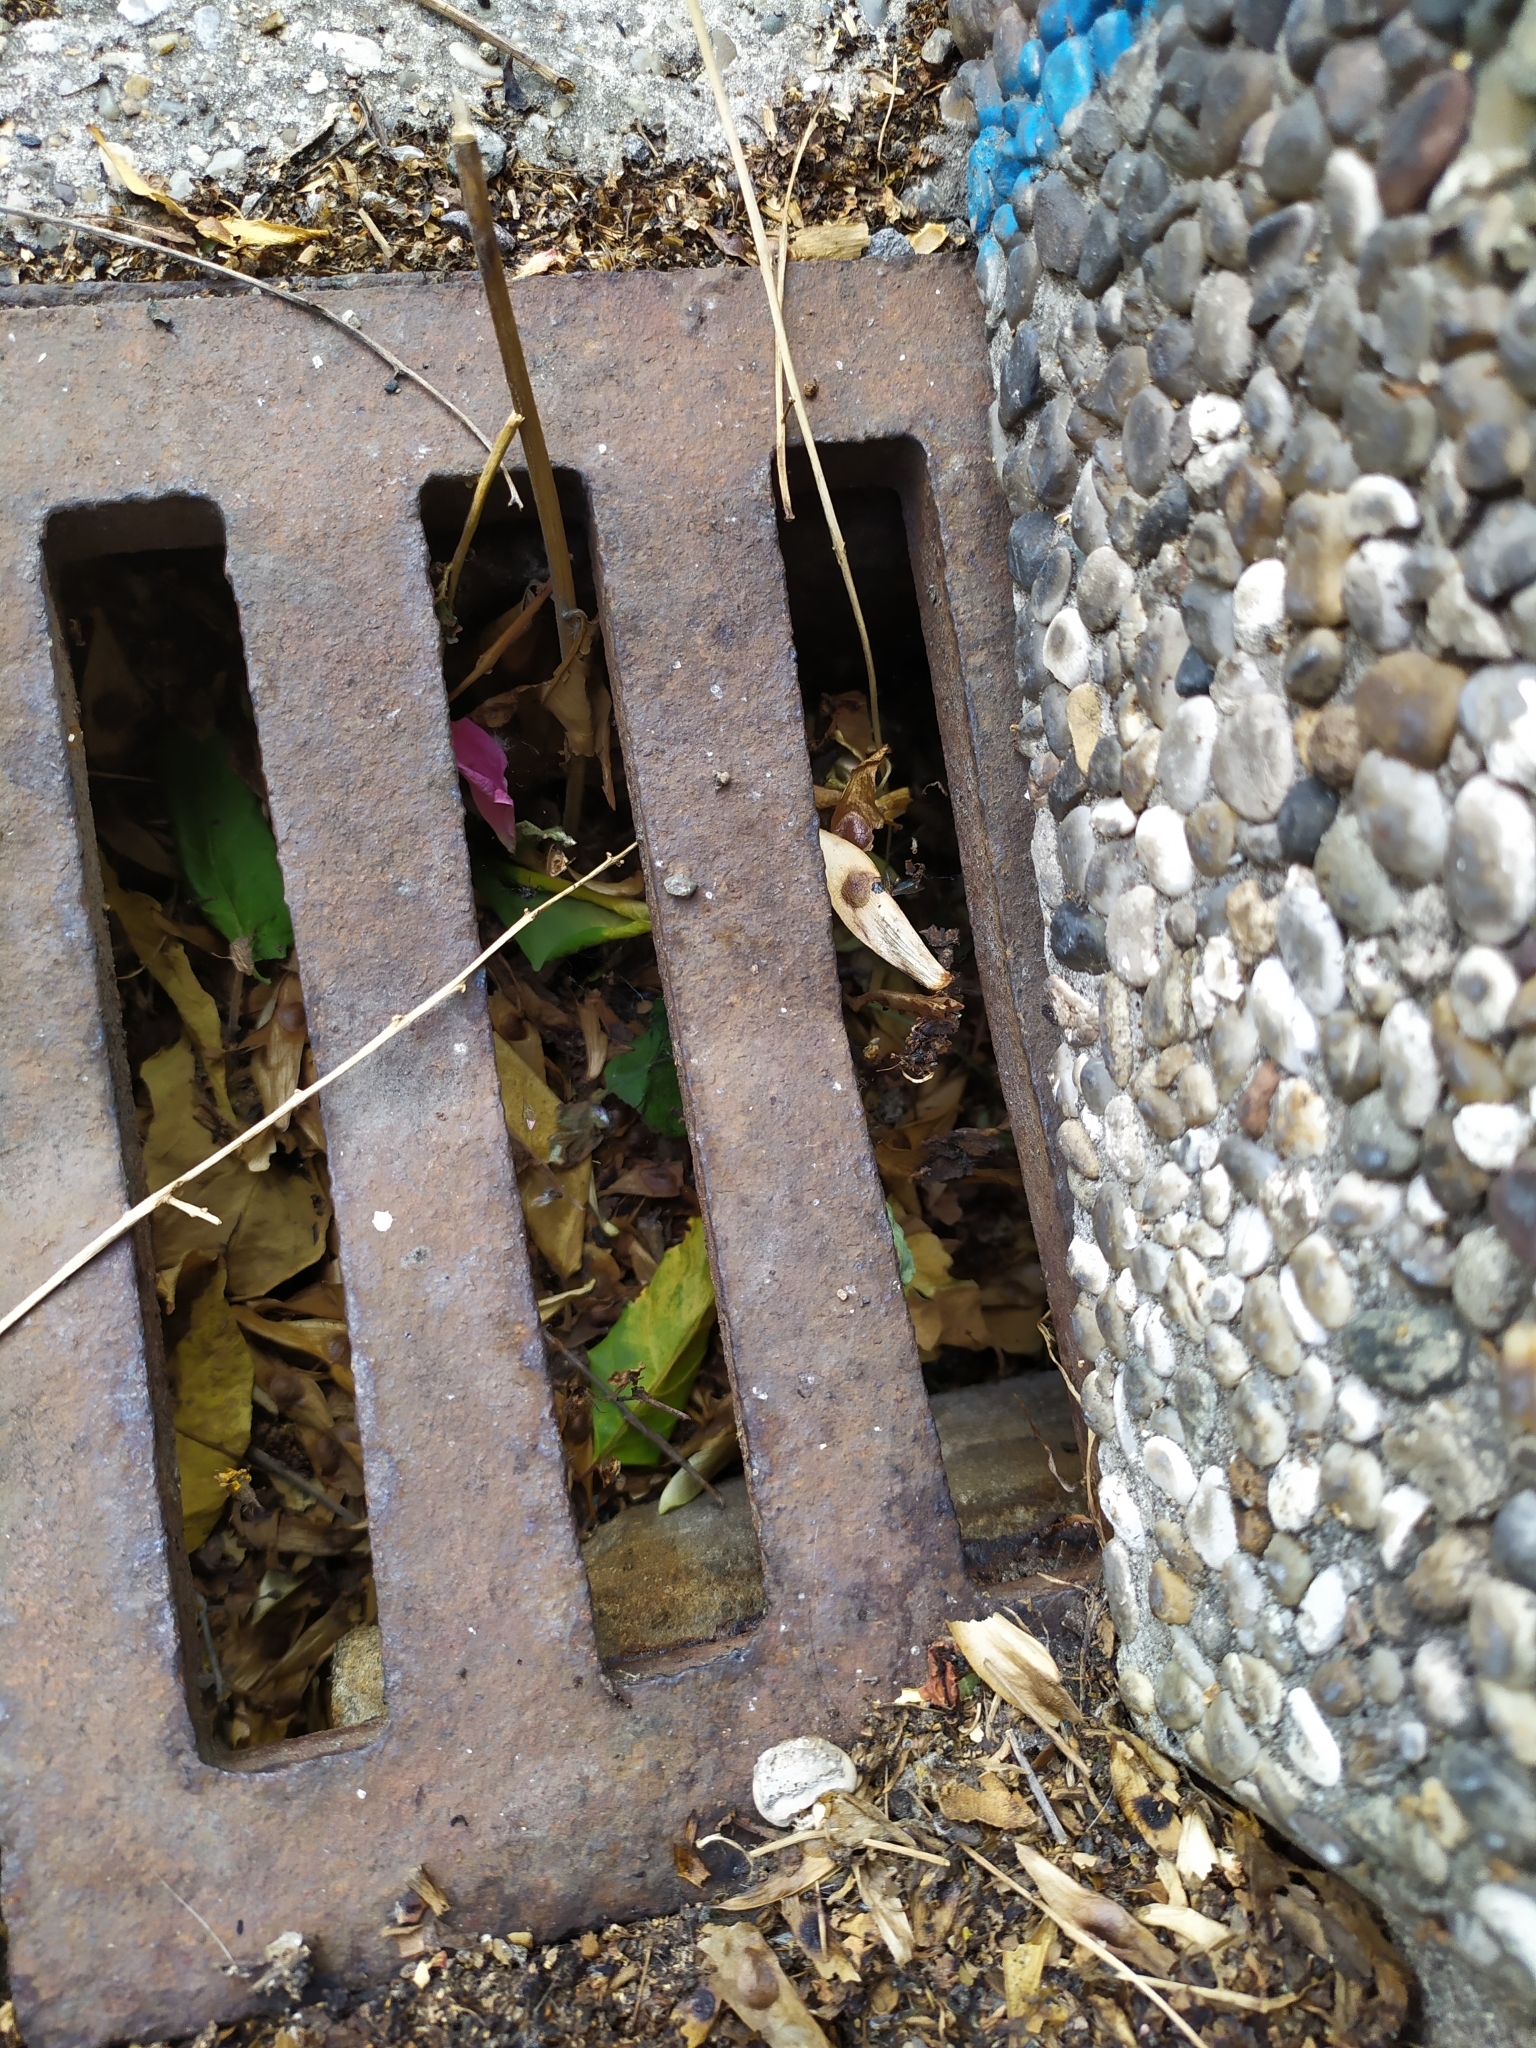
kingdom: Animalia
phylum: Arthropoda
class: Insecta
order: Orthoptera
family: Gryllidae
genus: Acheta
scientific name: Acheta domesticus
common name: House cricket
